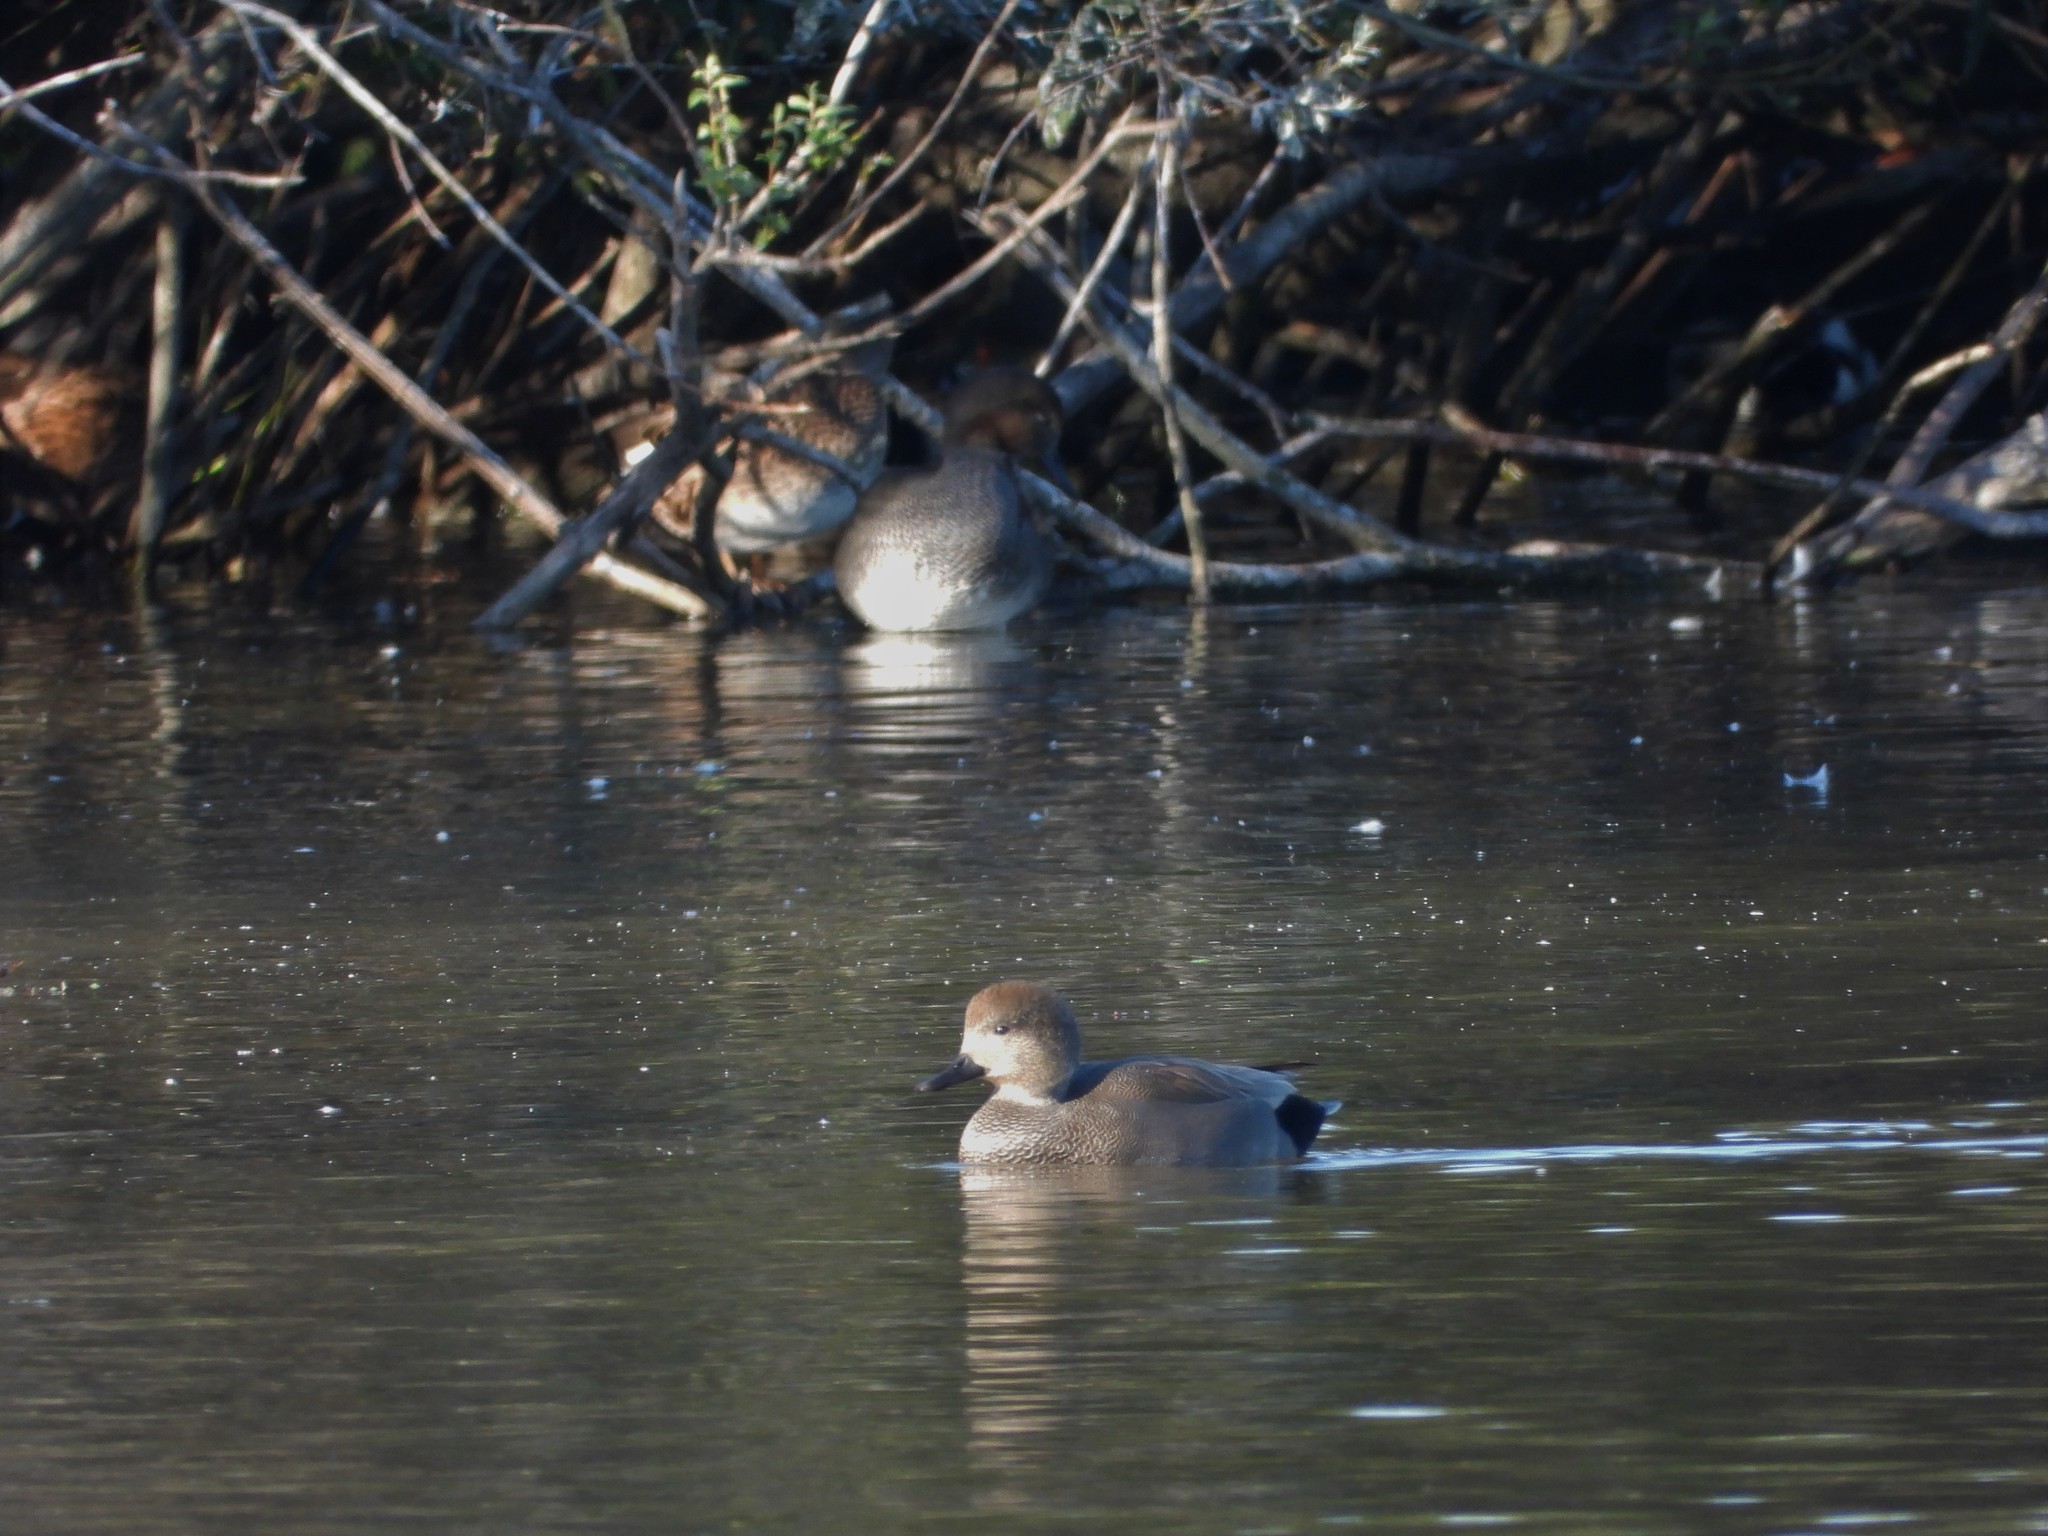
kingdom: Animalia
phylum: Chordata
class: Aves
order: Anseriformes
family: Anatidae
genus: Mareca
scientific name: Mareca strepera
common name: Gadwall
